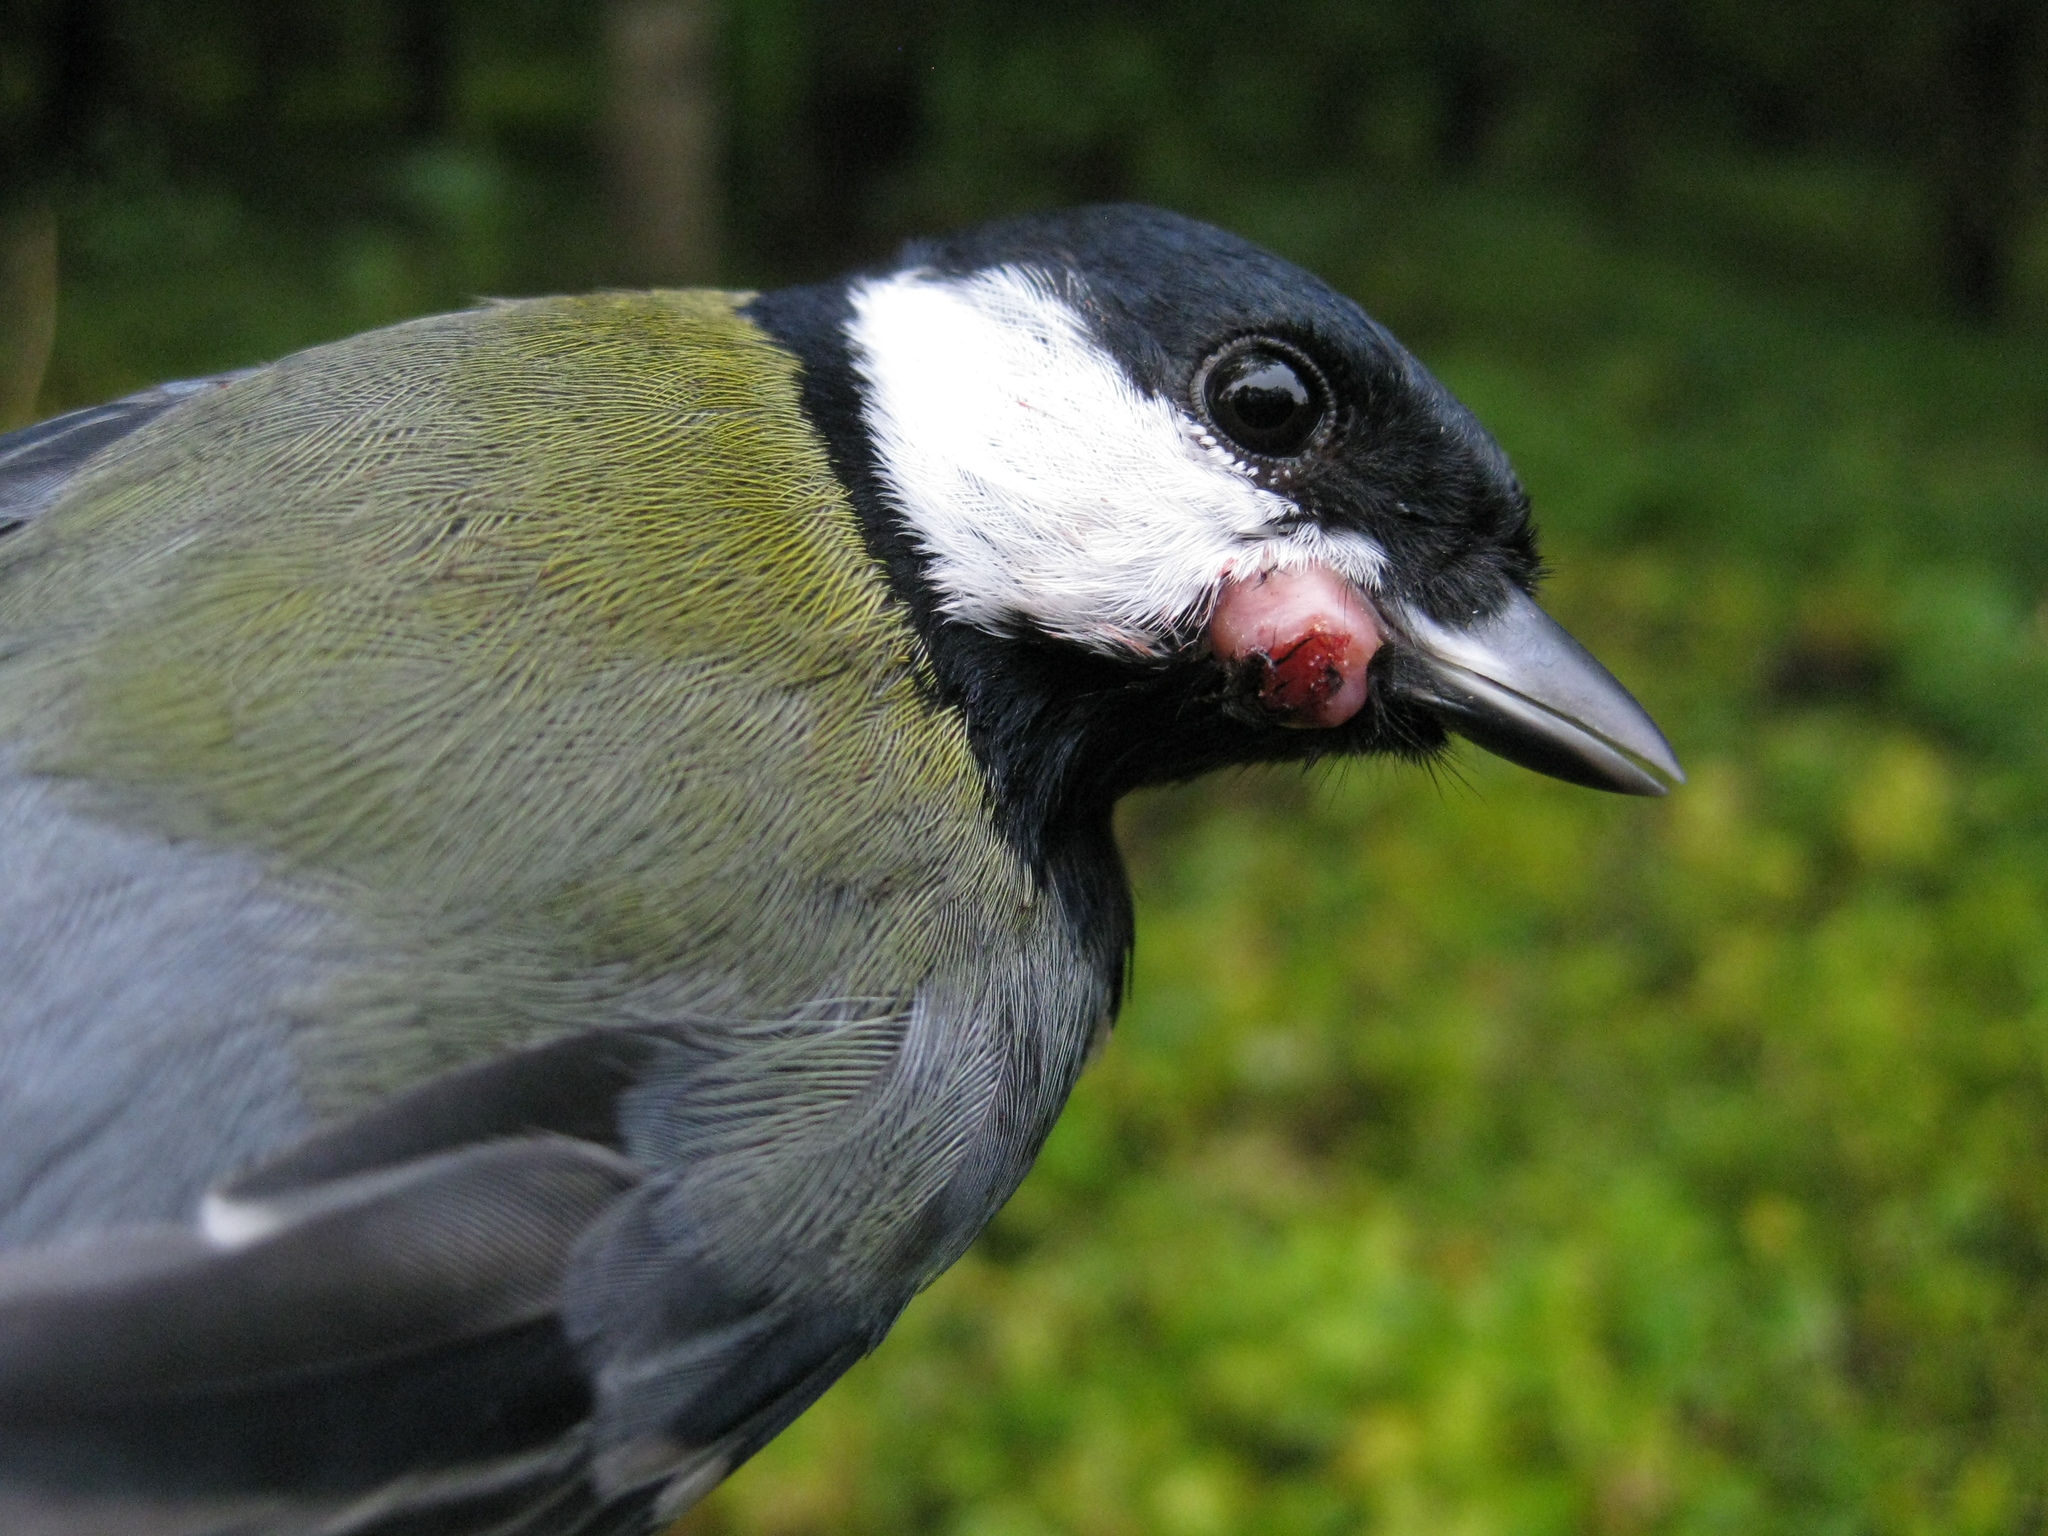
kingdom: Viruses
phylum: Nucleocytoviricota
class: Pokkesviricetes
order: Chitovirales
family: Poxviridae
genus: Avipoxvirus
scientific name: Avipoxvirus
